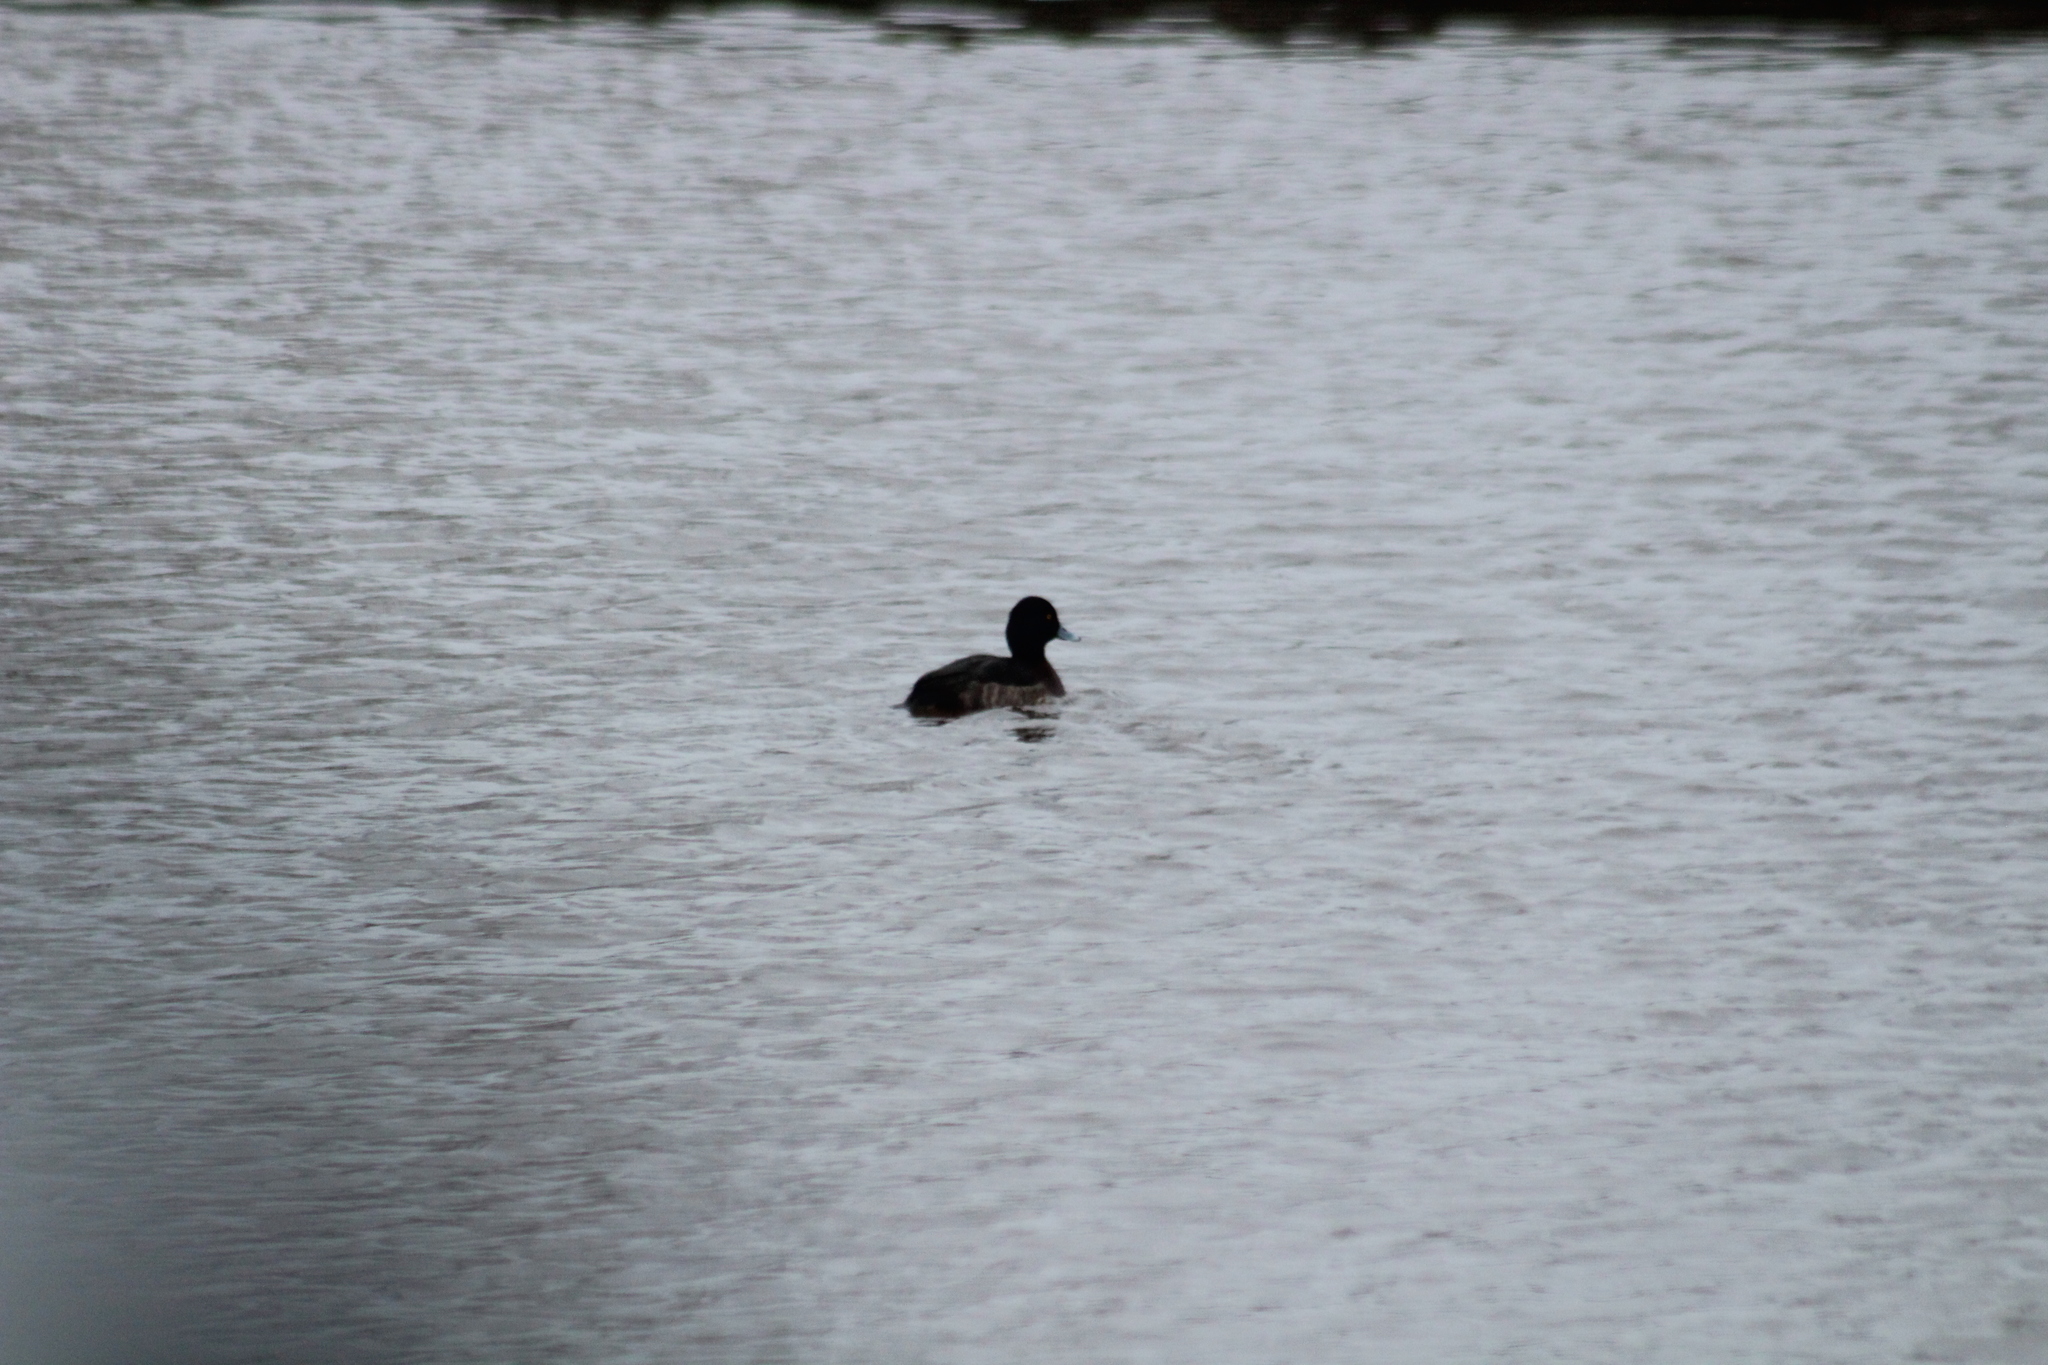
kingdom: Animalia
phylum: Chordata
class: Aves
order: Anseriformes
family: Anatidae
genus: Aythya
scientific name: Aythya fuligula
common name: Tufted duck
